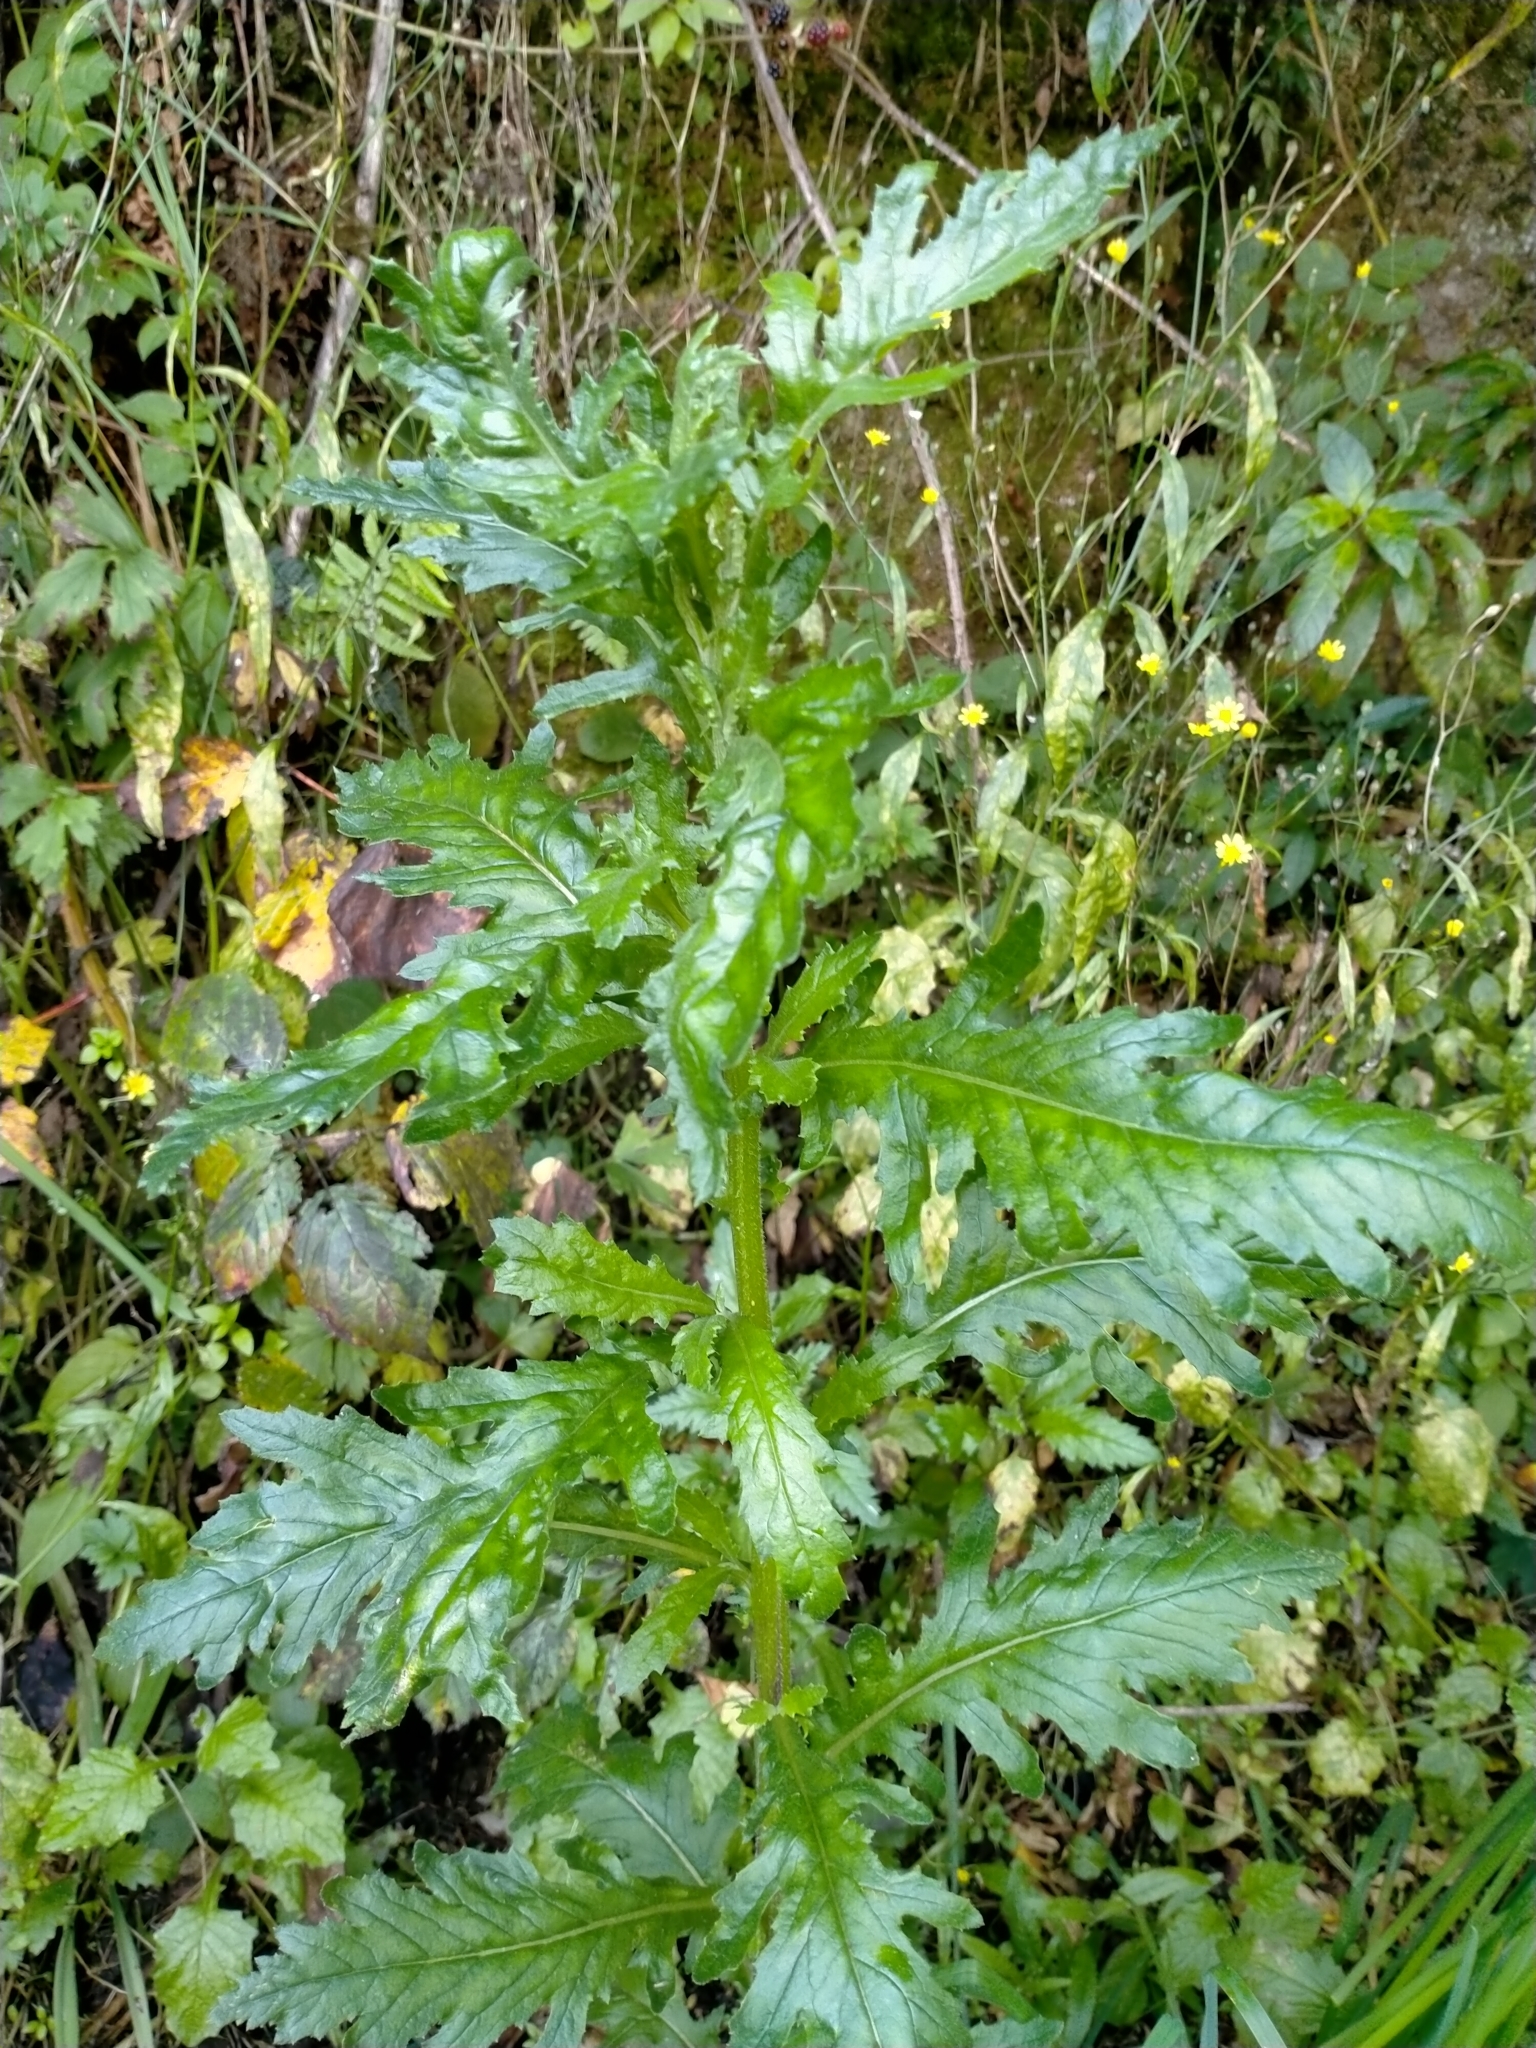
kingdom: Plantae
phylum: Tracheophyta
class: Magnoliopsida
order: Asterales
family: Asteraceae
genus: Senecio
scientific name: Senecio biserratus
